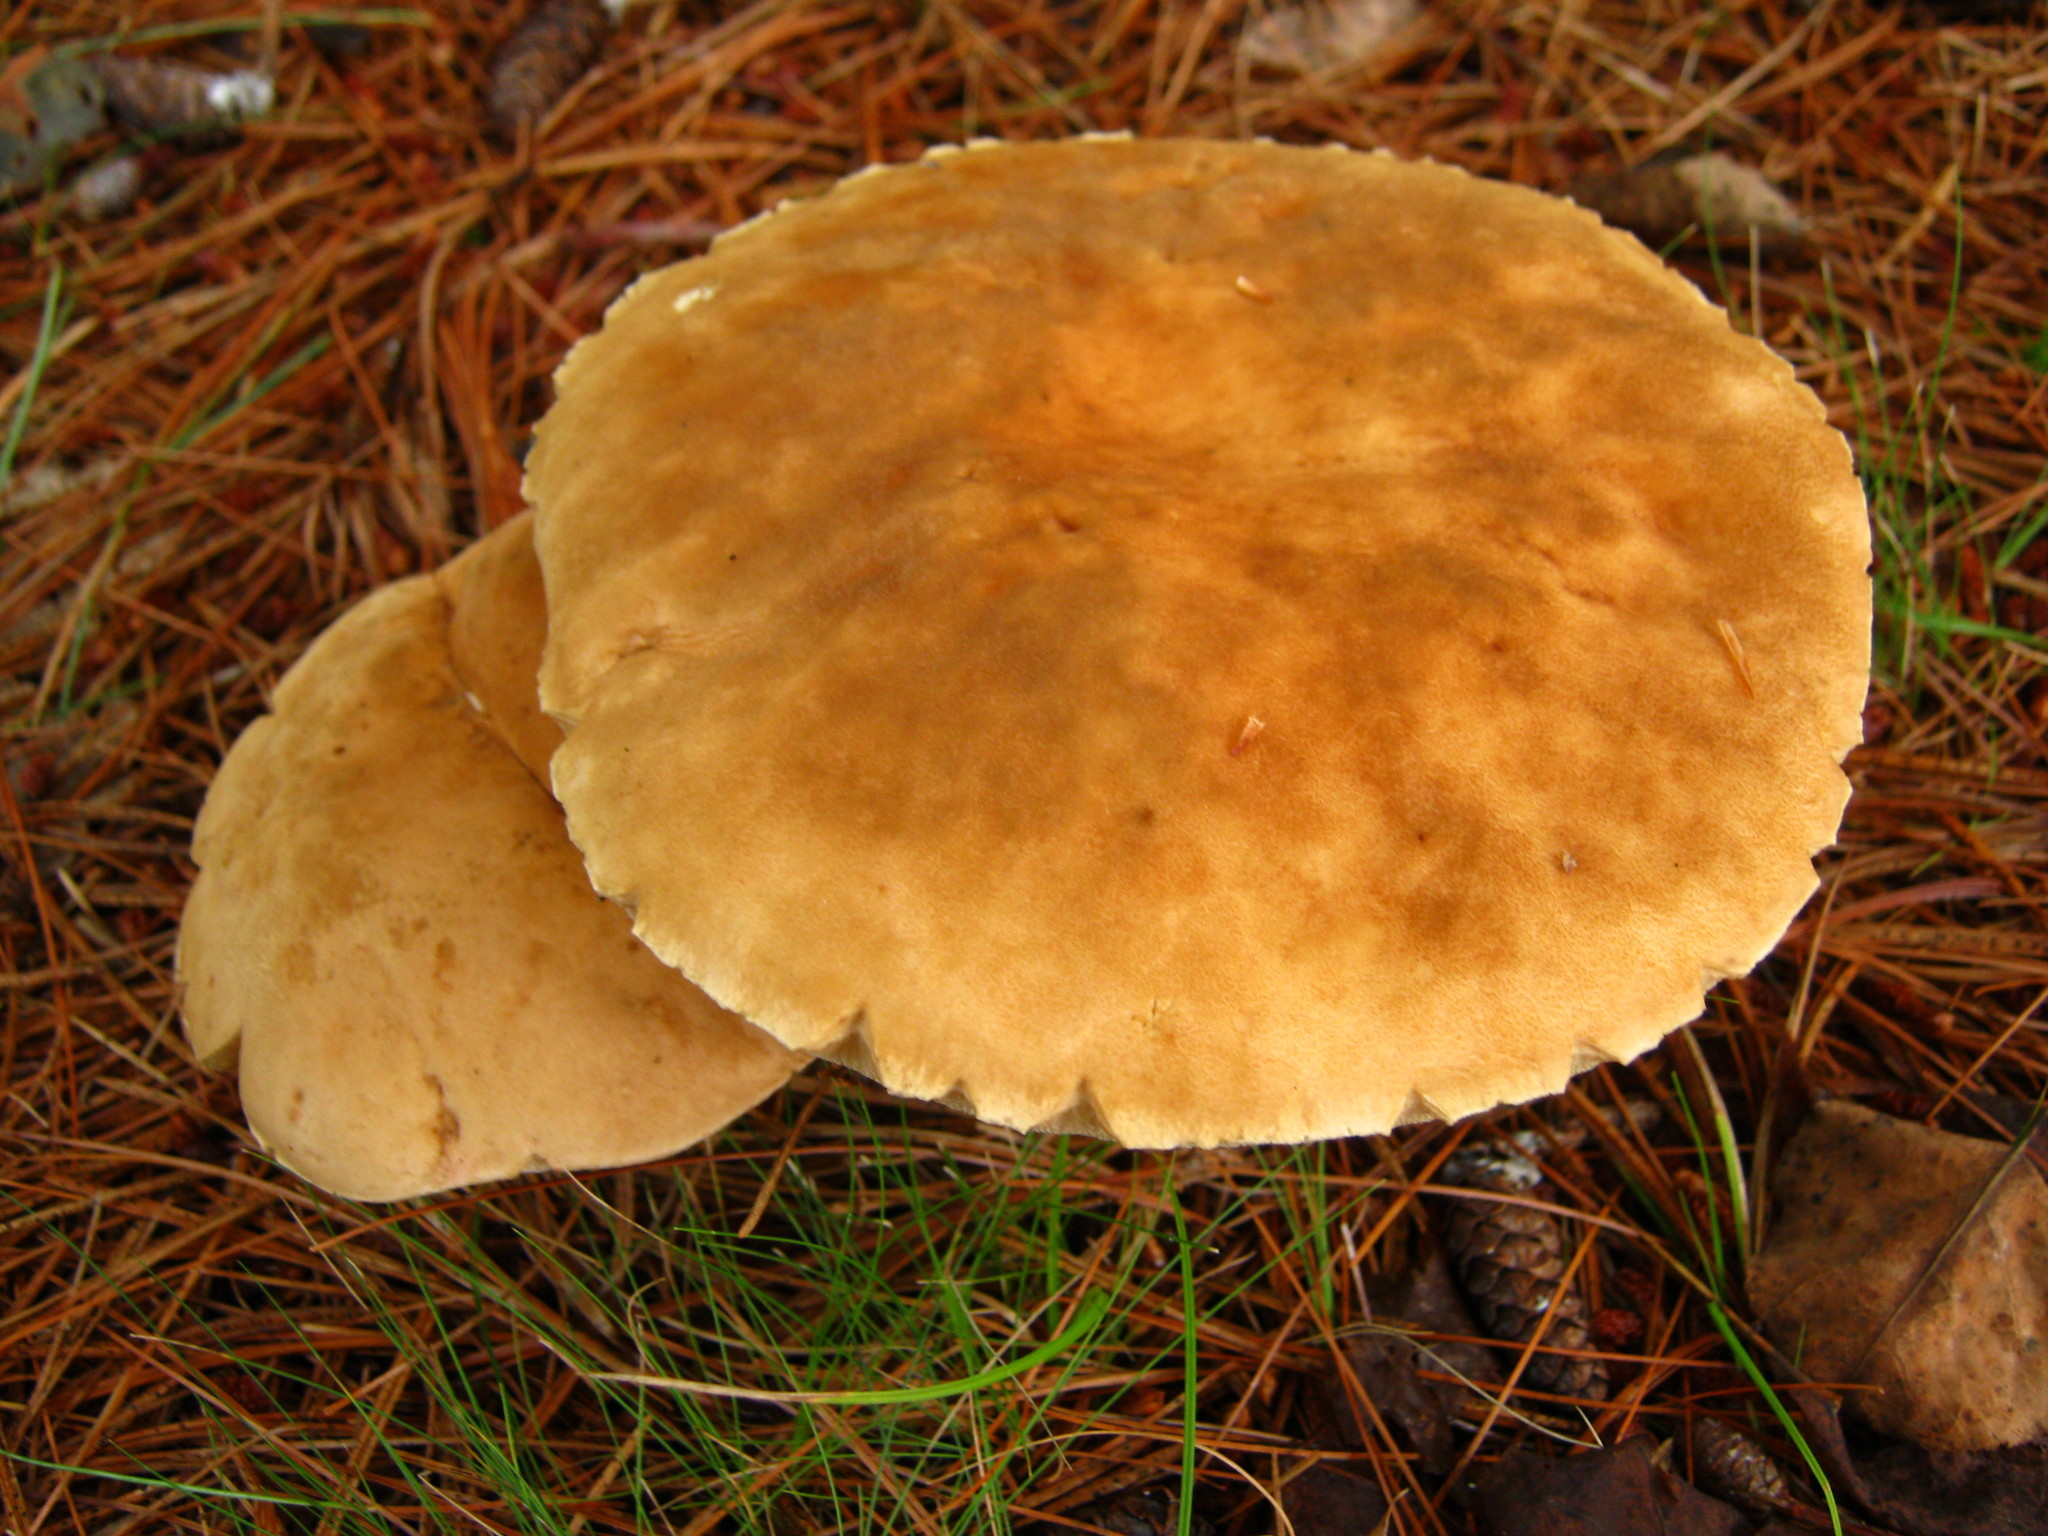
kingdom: Fungi
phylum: Basidiomycota
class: Agaricomycetes
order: Boletales
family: Boletaceae
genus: Boletus
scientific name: Boletus edulis
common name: Cep
